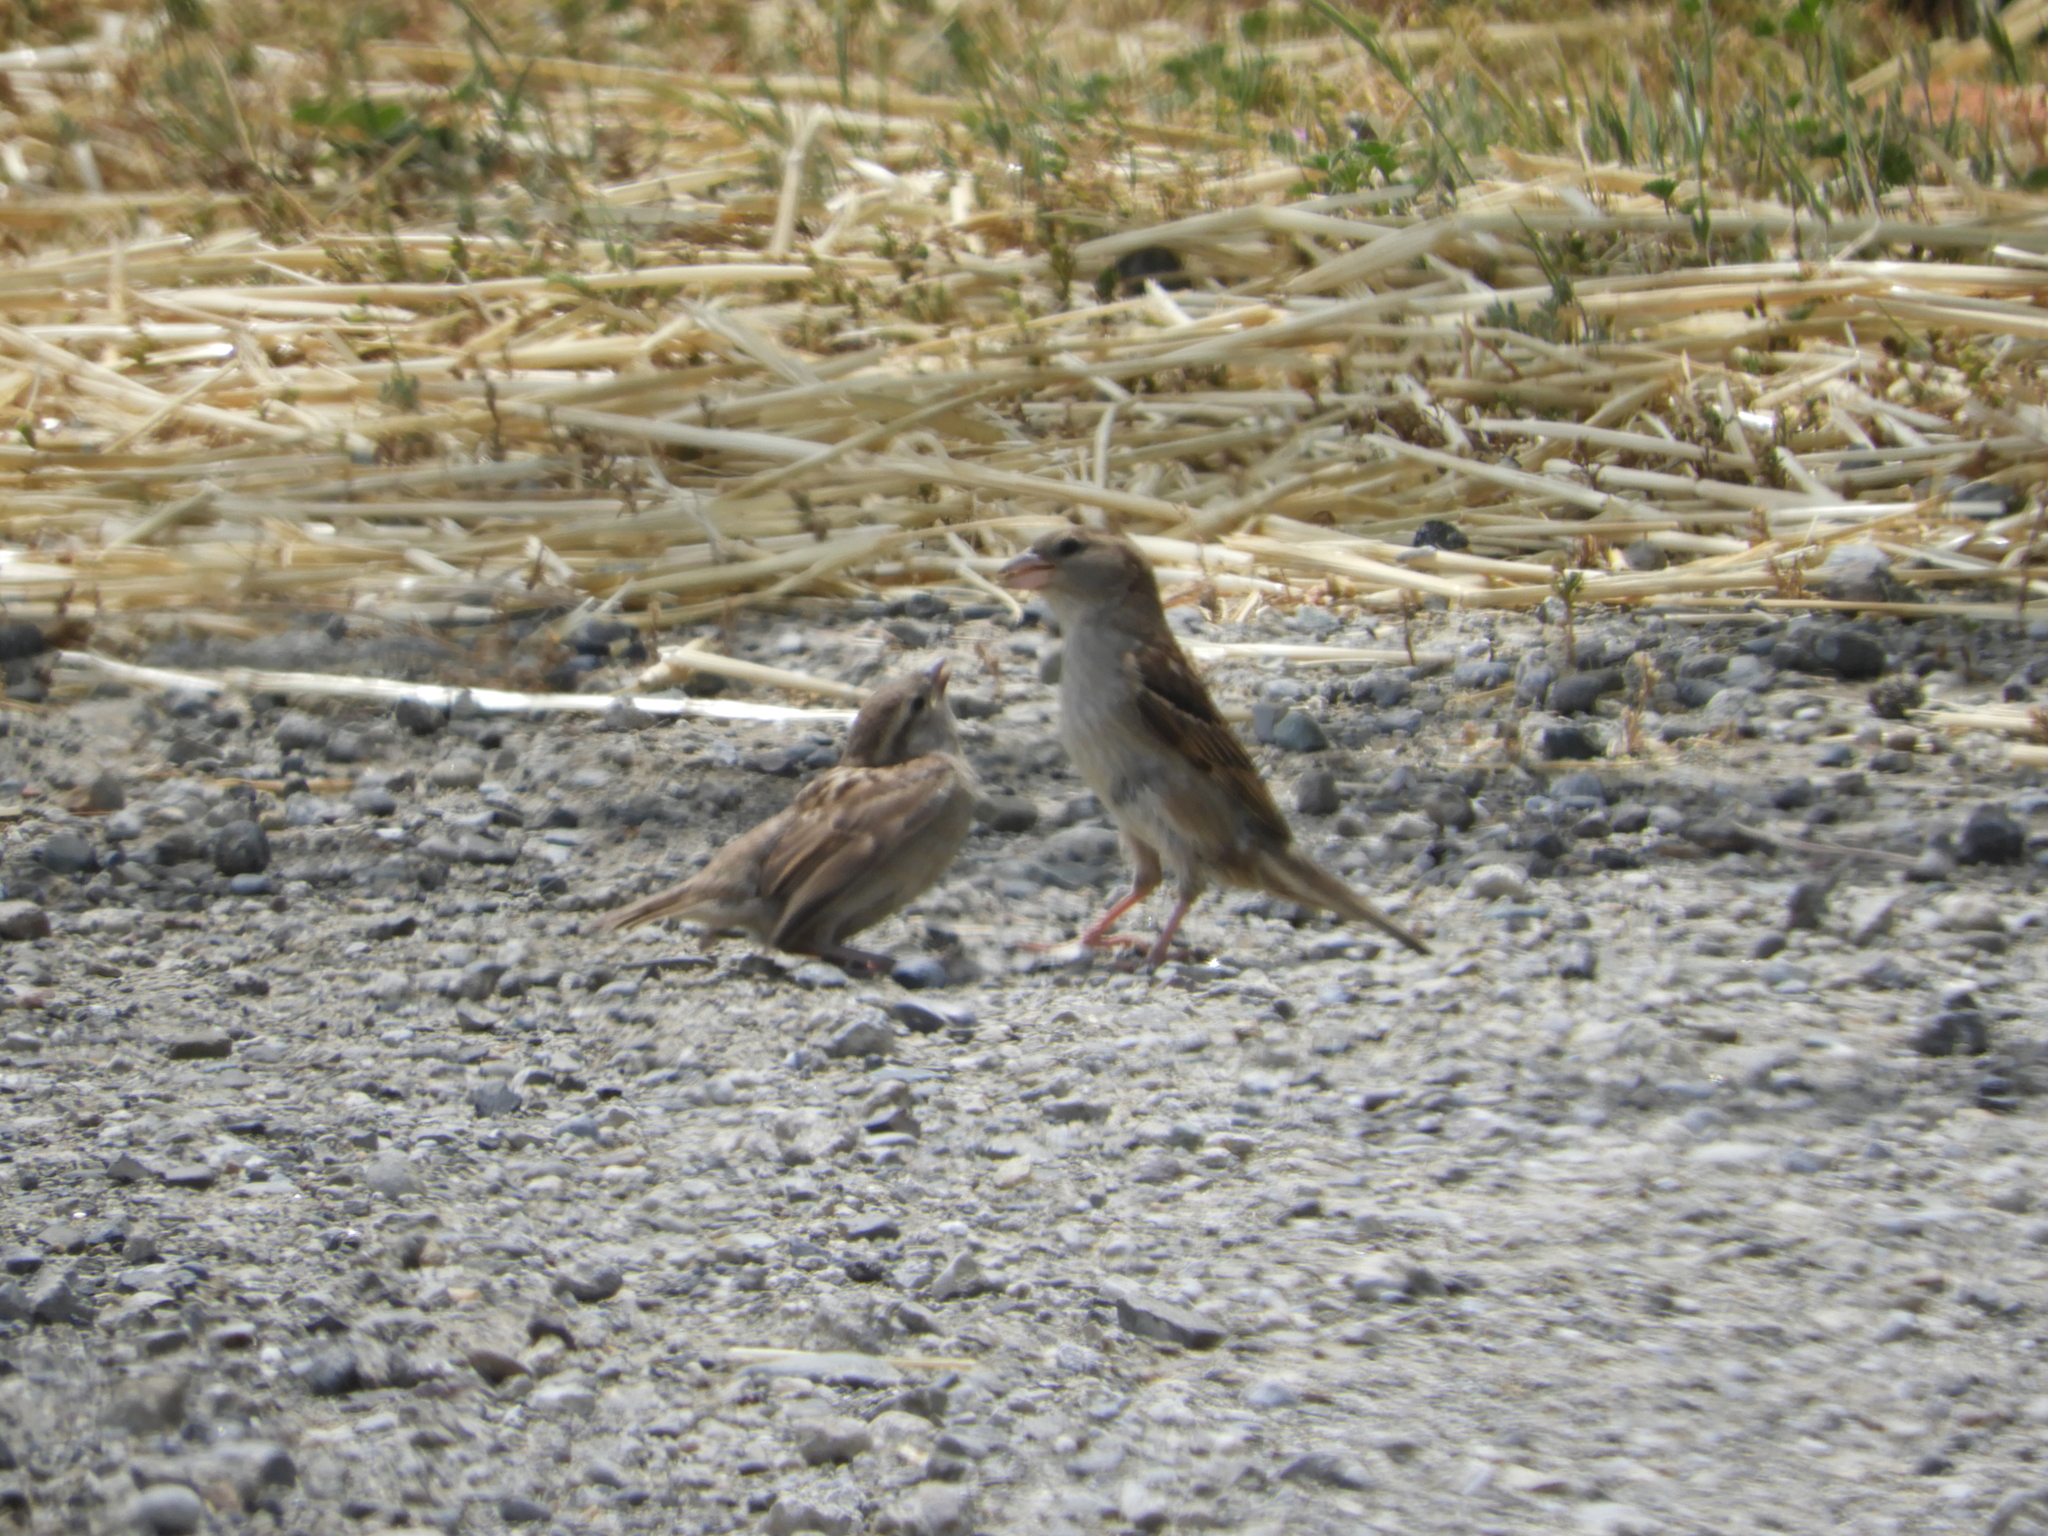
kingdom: Animalia
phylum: Chordata
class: Aves
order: Passeriformes
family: Passeridae
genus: Passer
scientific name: Passer domesticus
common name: House sparrow
